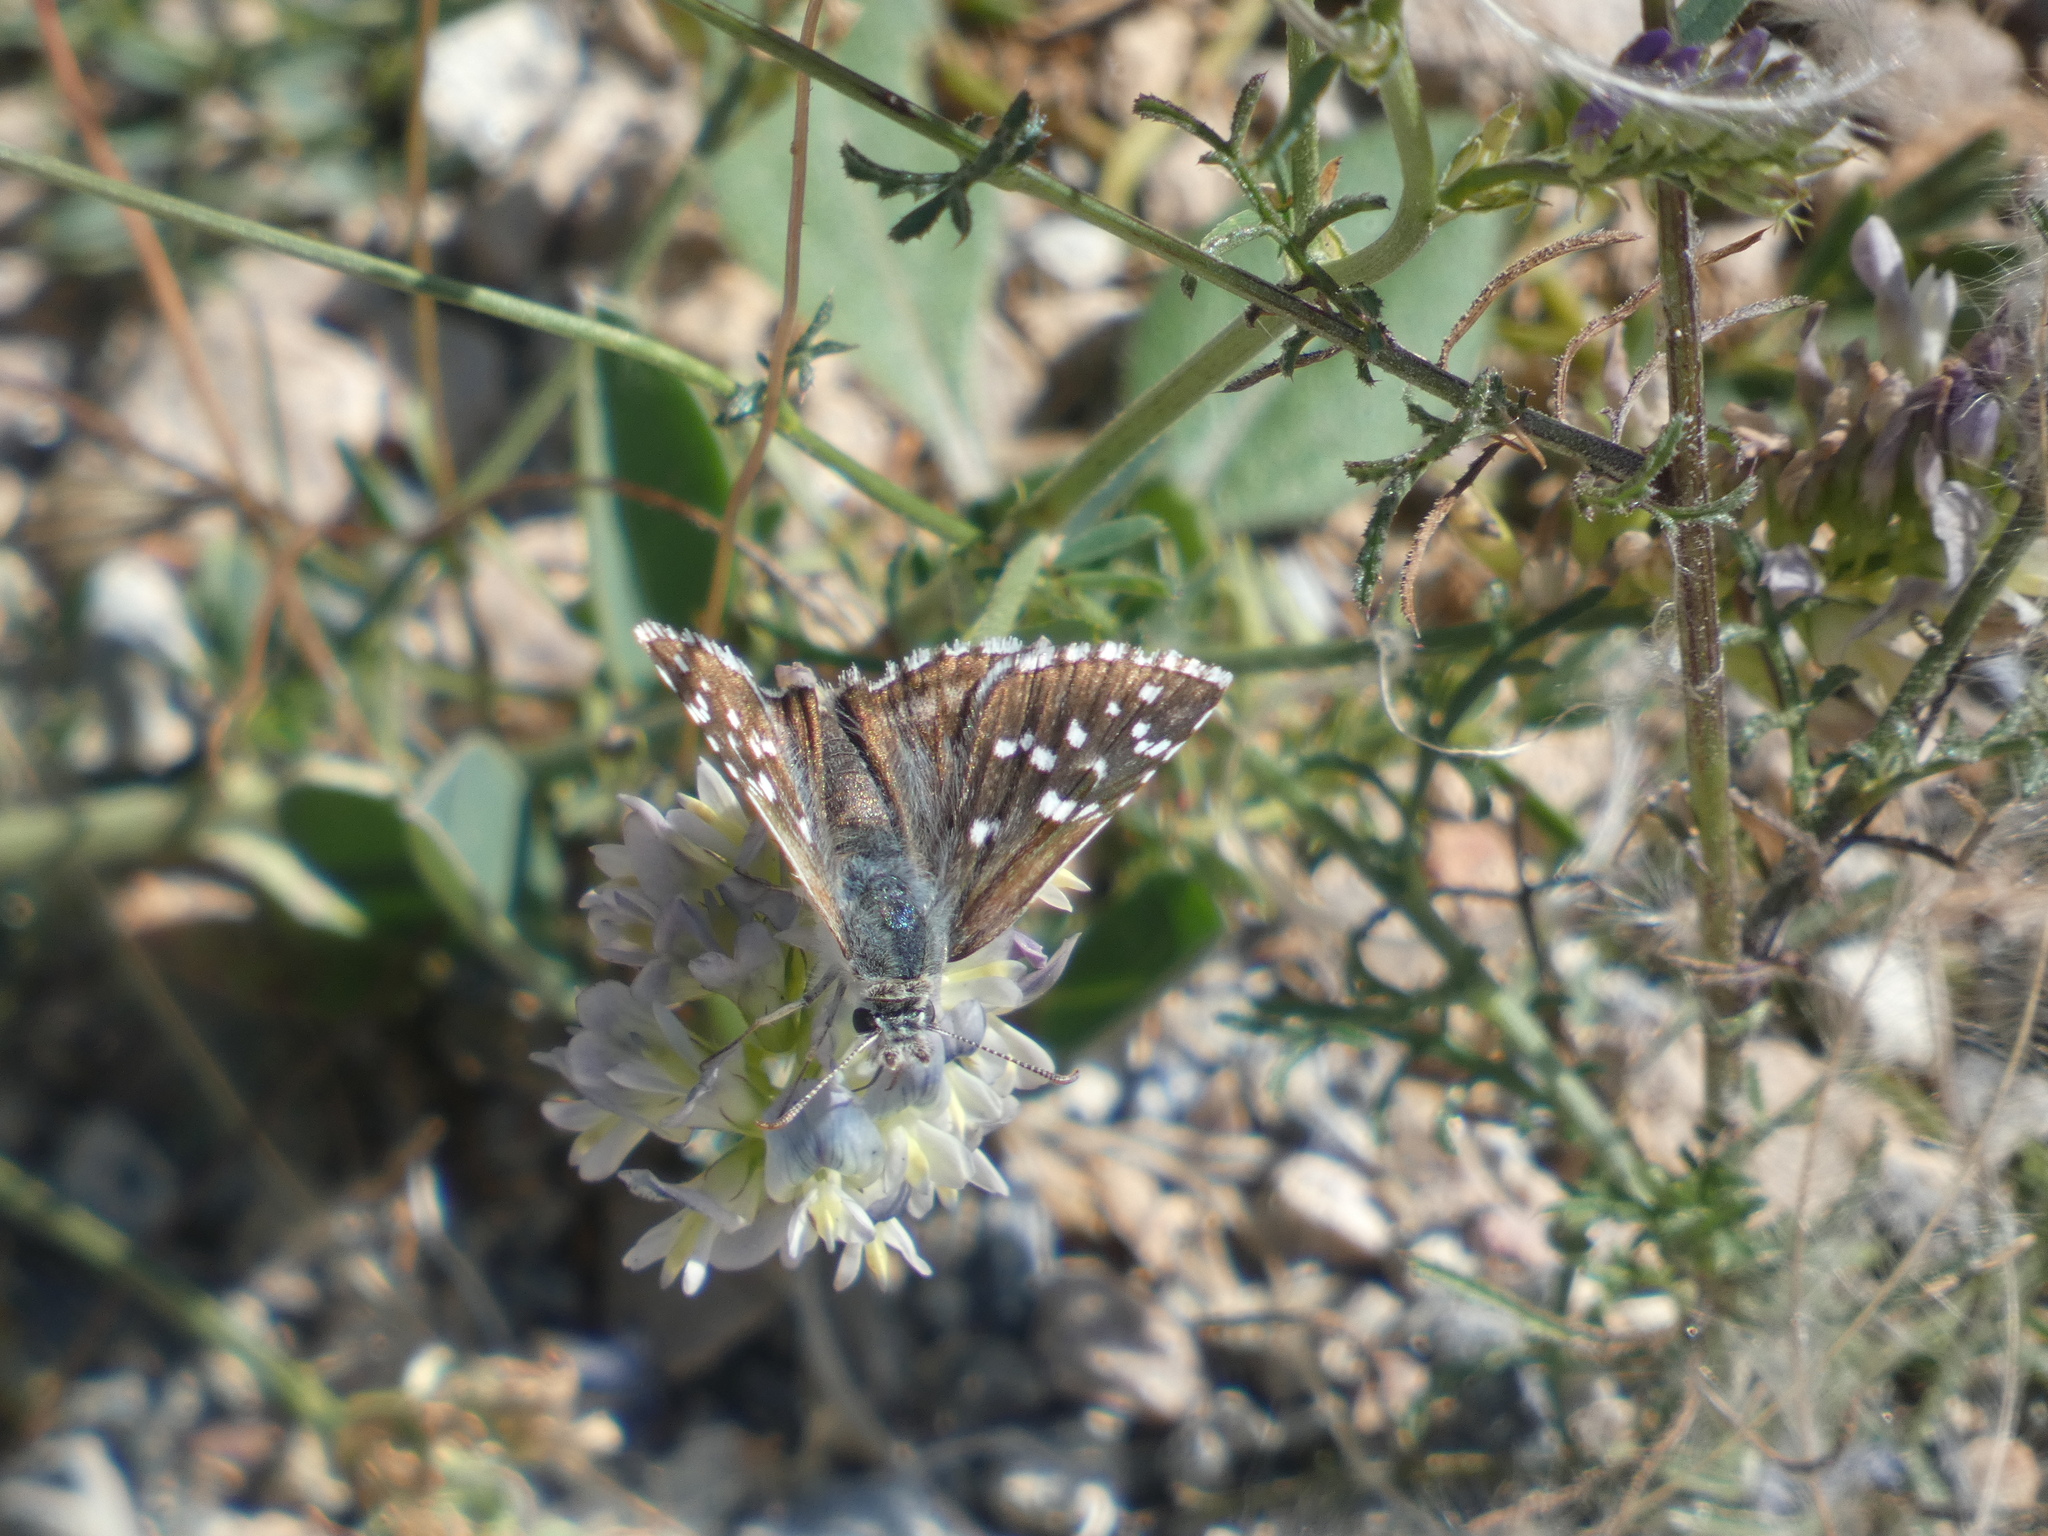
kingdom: Animalia
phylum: Arthropoda
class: Insecta
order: Lepidoptera
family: Hesperiidae
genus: Pyrgus
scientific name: Pyrgus onopordi
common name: Rosy grizzled skipper
